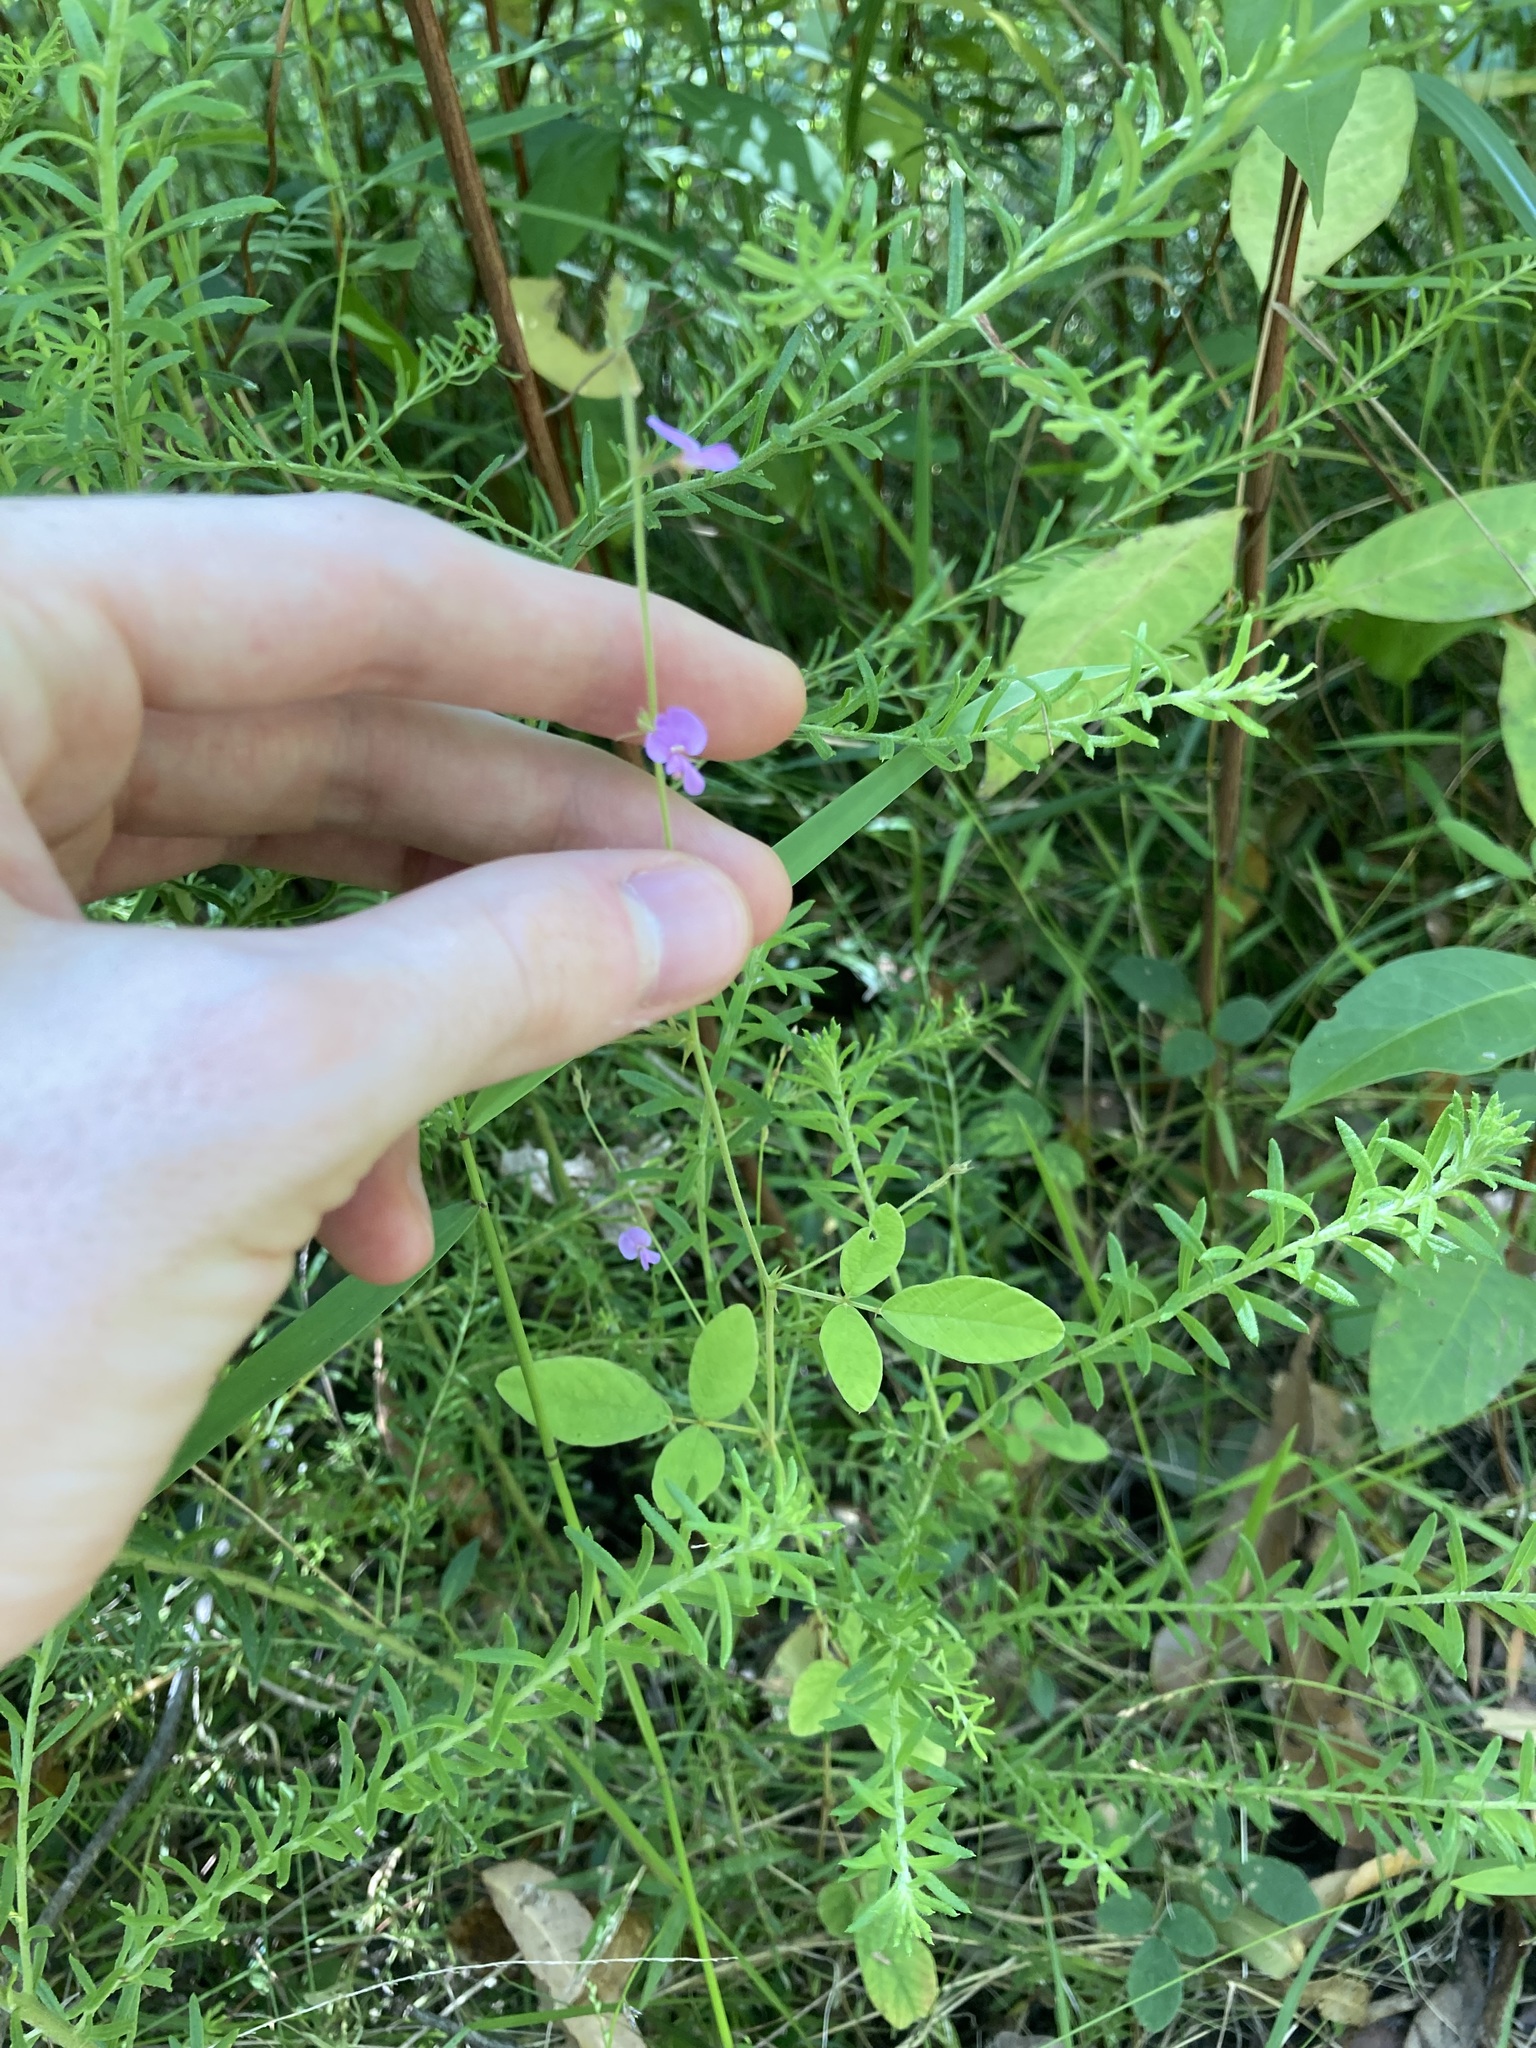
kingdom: Plantae
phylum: Tracheophyta
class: Magnoliopsida
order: Fabales
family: Fabaceae
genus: Maekawaea
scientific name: Maekawaea rhytidophylla
